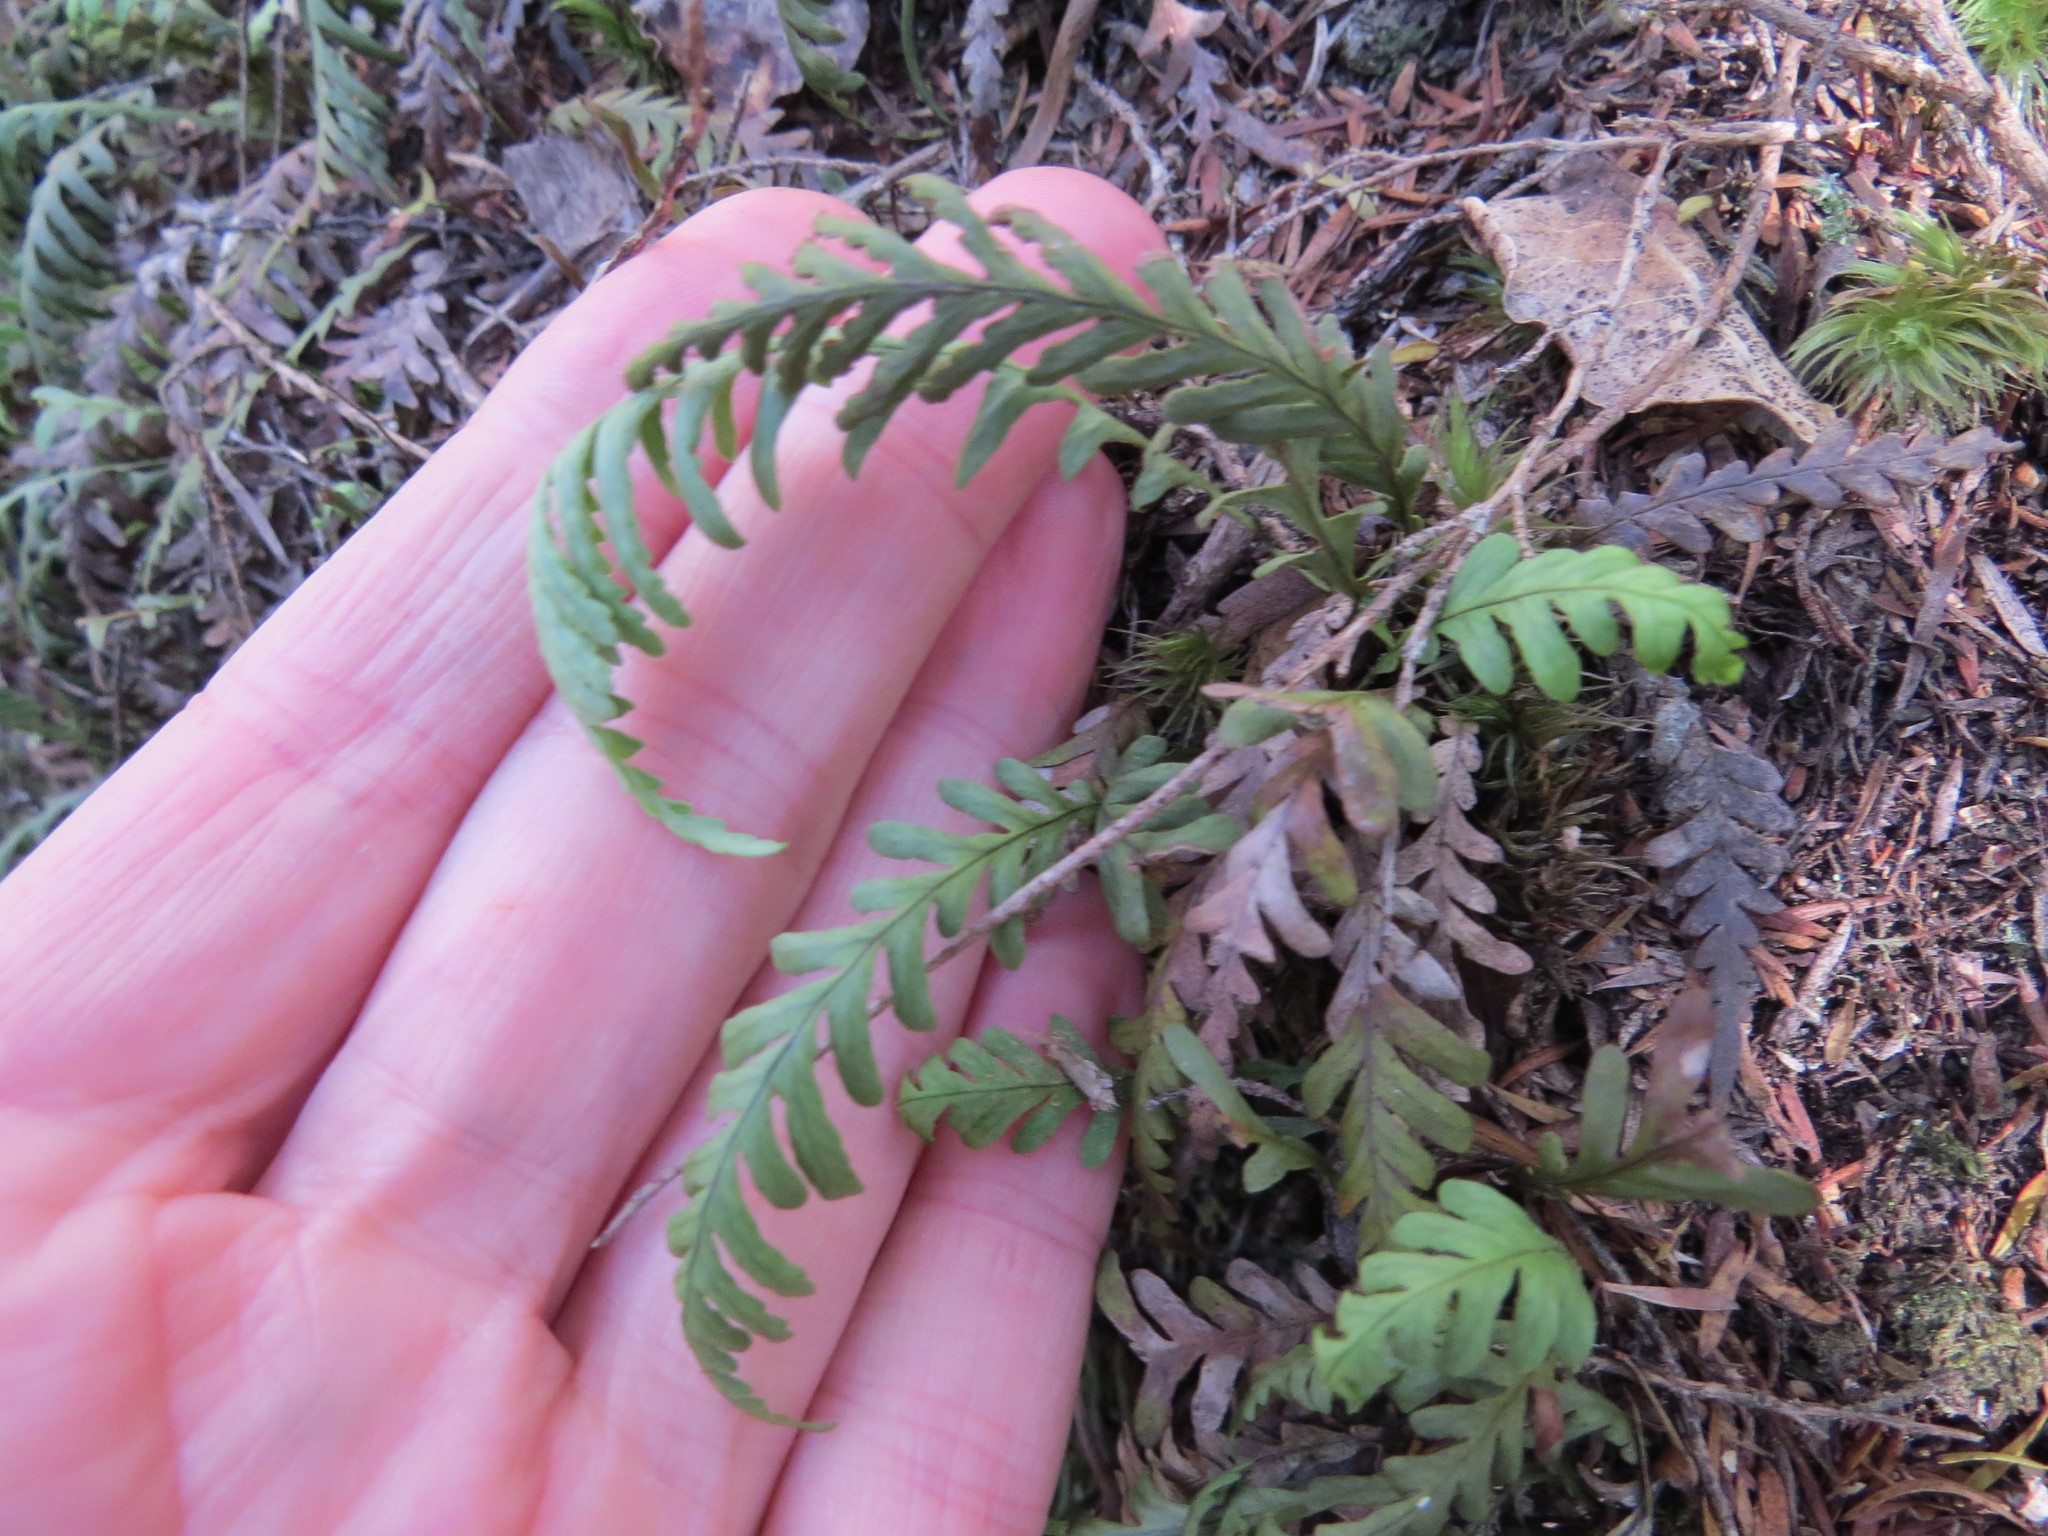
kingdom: Plantae
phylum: Tracheophyta
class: Polypodiopsida
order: Polypodiales
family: Polypodiaceae
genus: Notogrammitis
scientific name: Notogrammitis heterophylla
